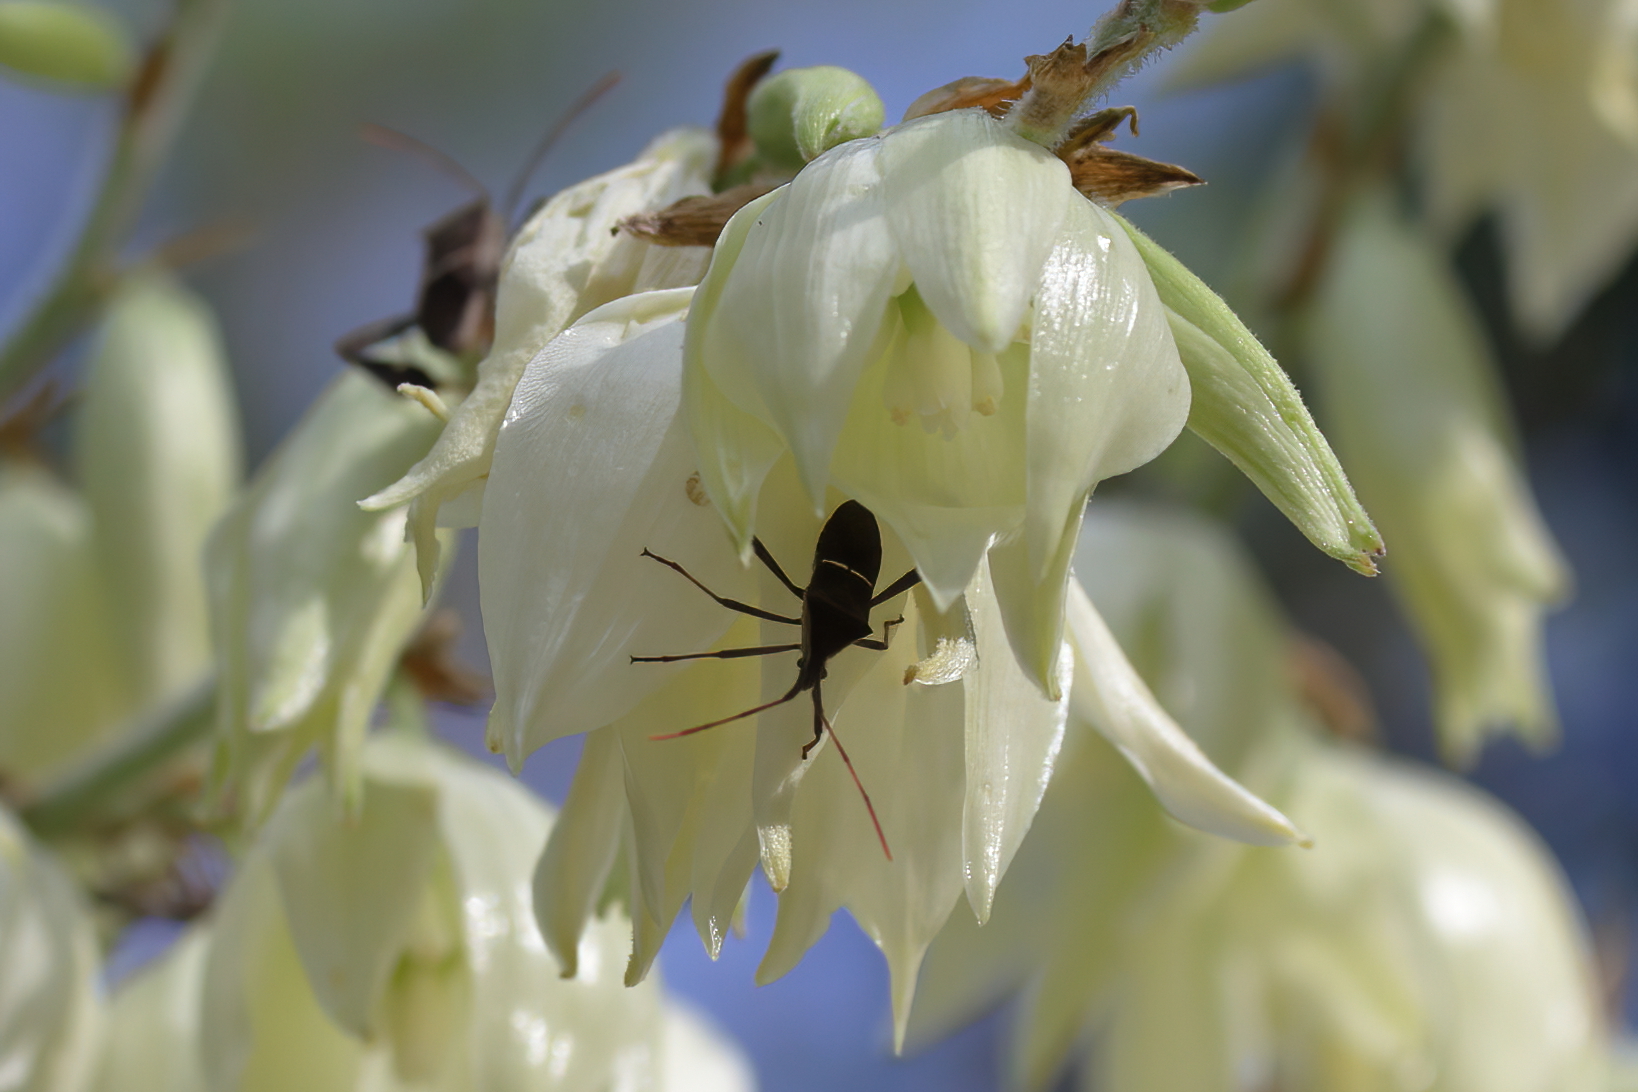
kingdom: Animalia
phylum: Arthropoda
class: Insecta
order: Hemiptera
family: Coreidae
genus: Leptoglossus
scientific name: Leptoglossus phyllopus
